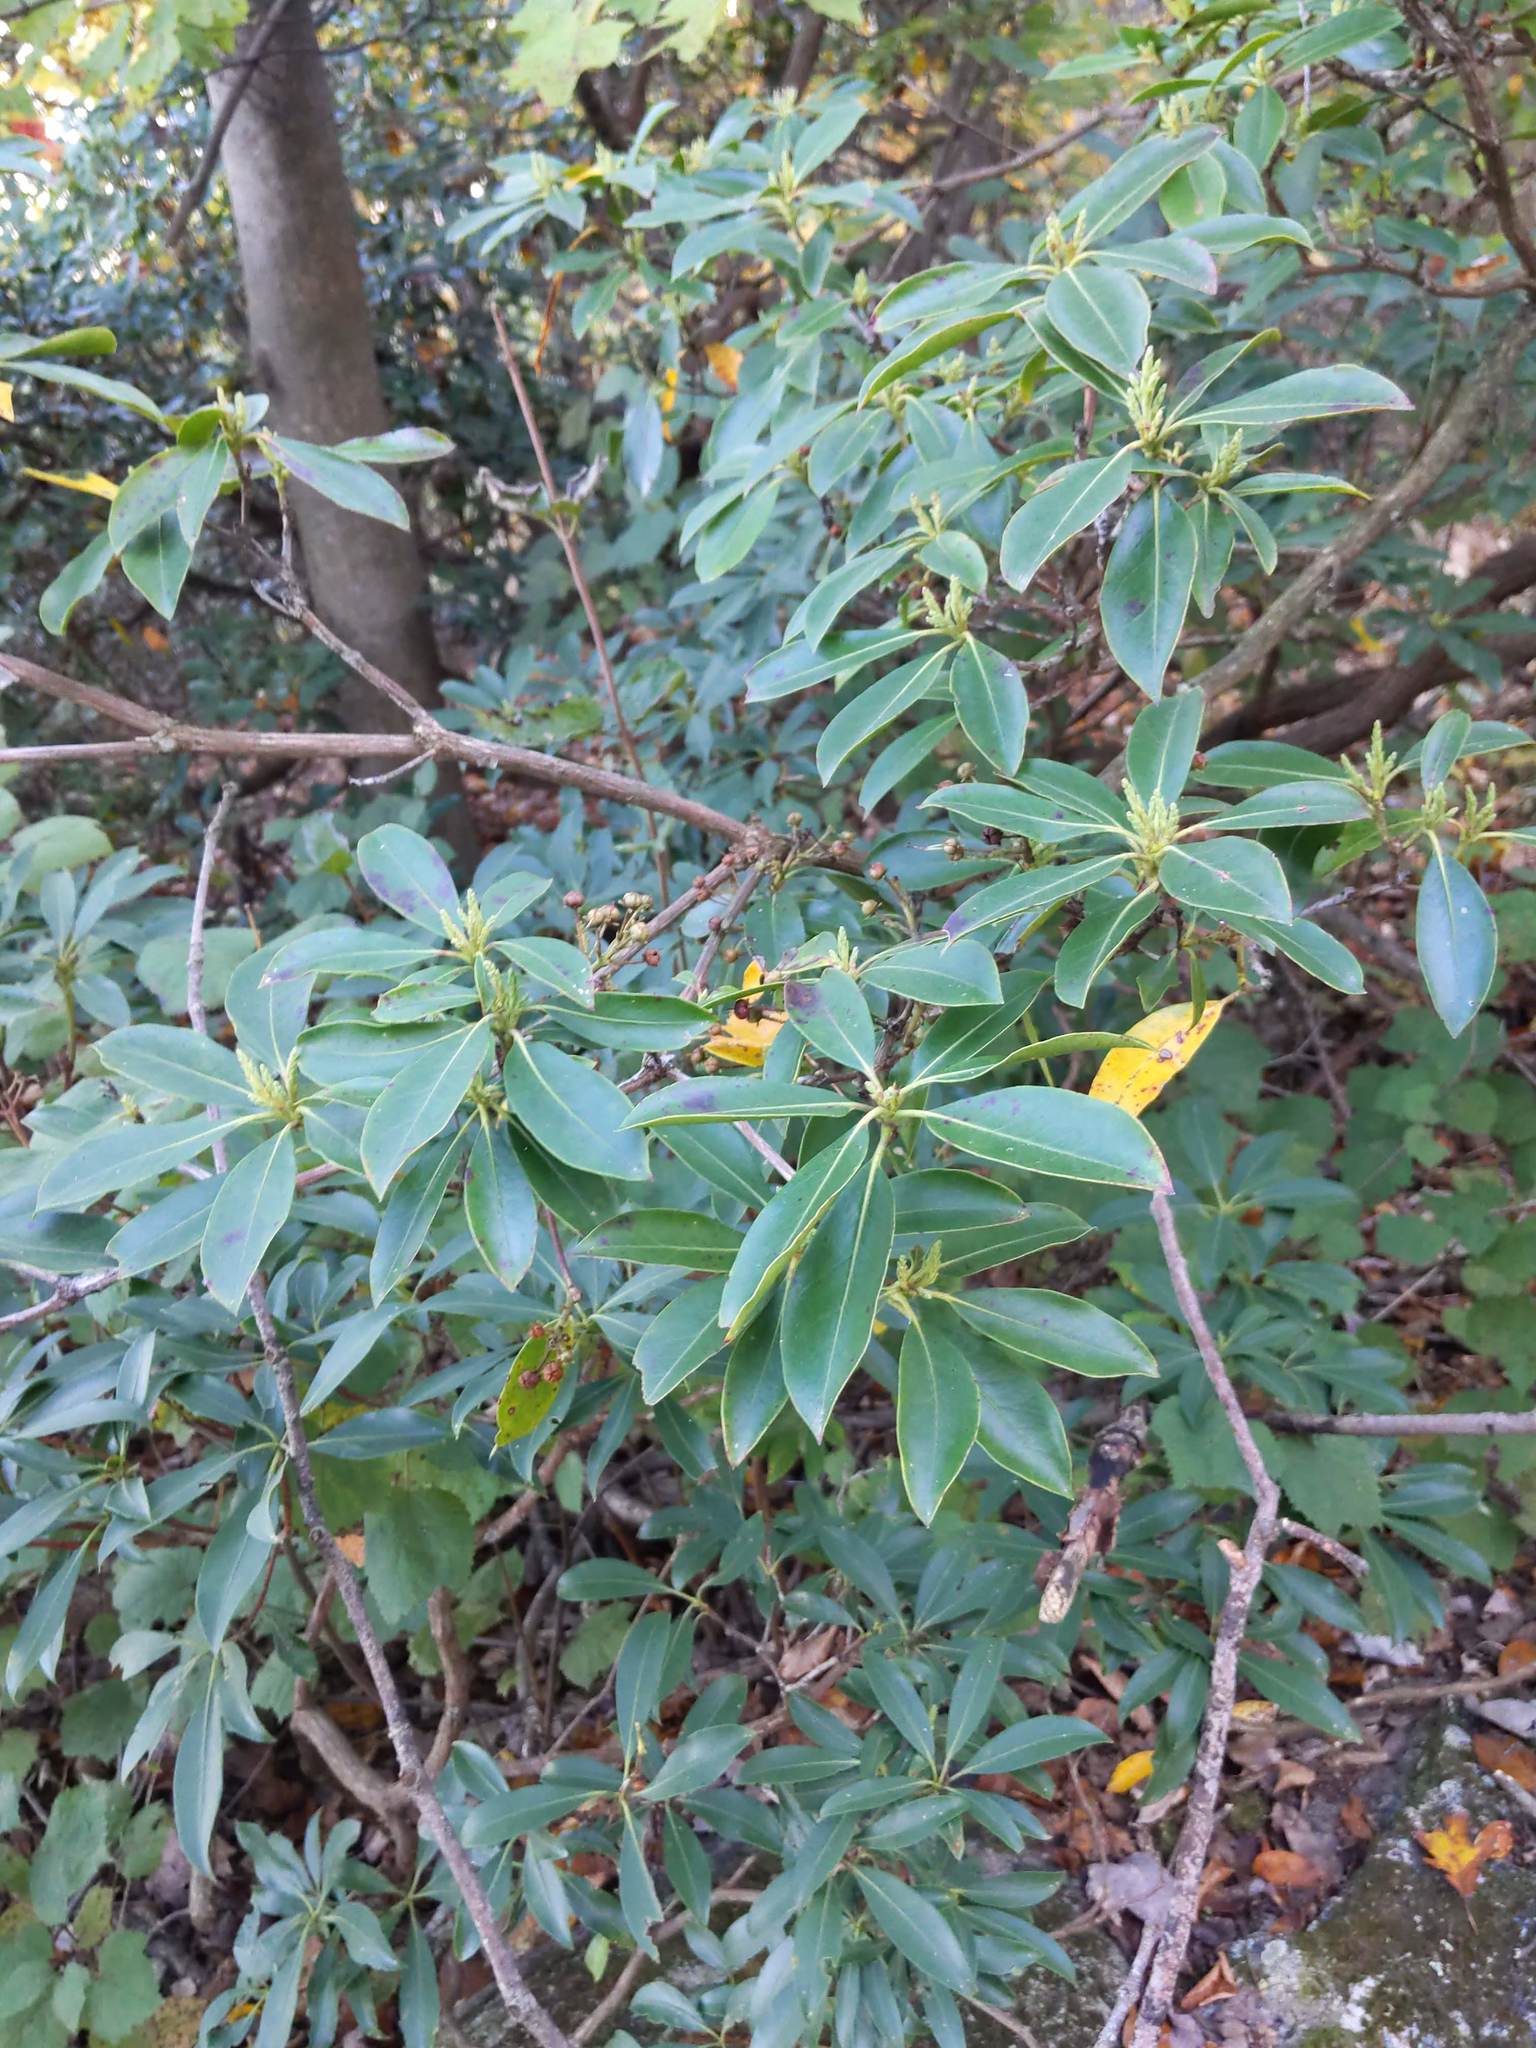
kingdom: Plantae
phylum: Tracheophyta
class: Magnoliopsida
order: Ericales
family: Ericaceae
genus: Kalmia
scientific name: Kalmia latifolia
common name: Mountain-laurel
